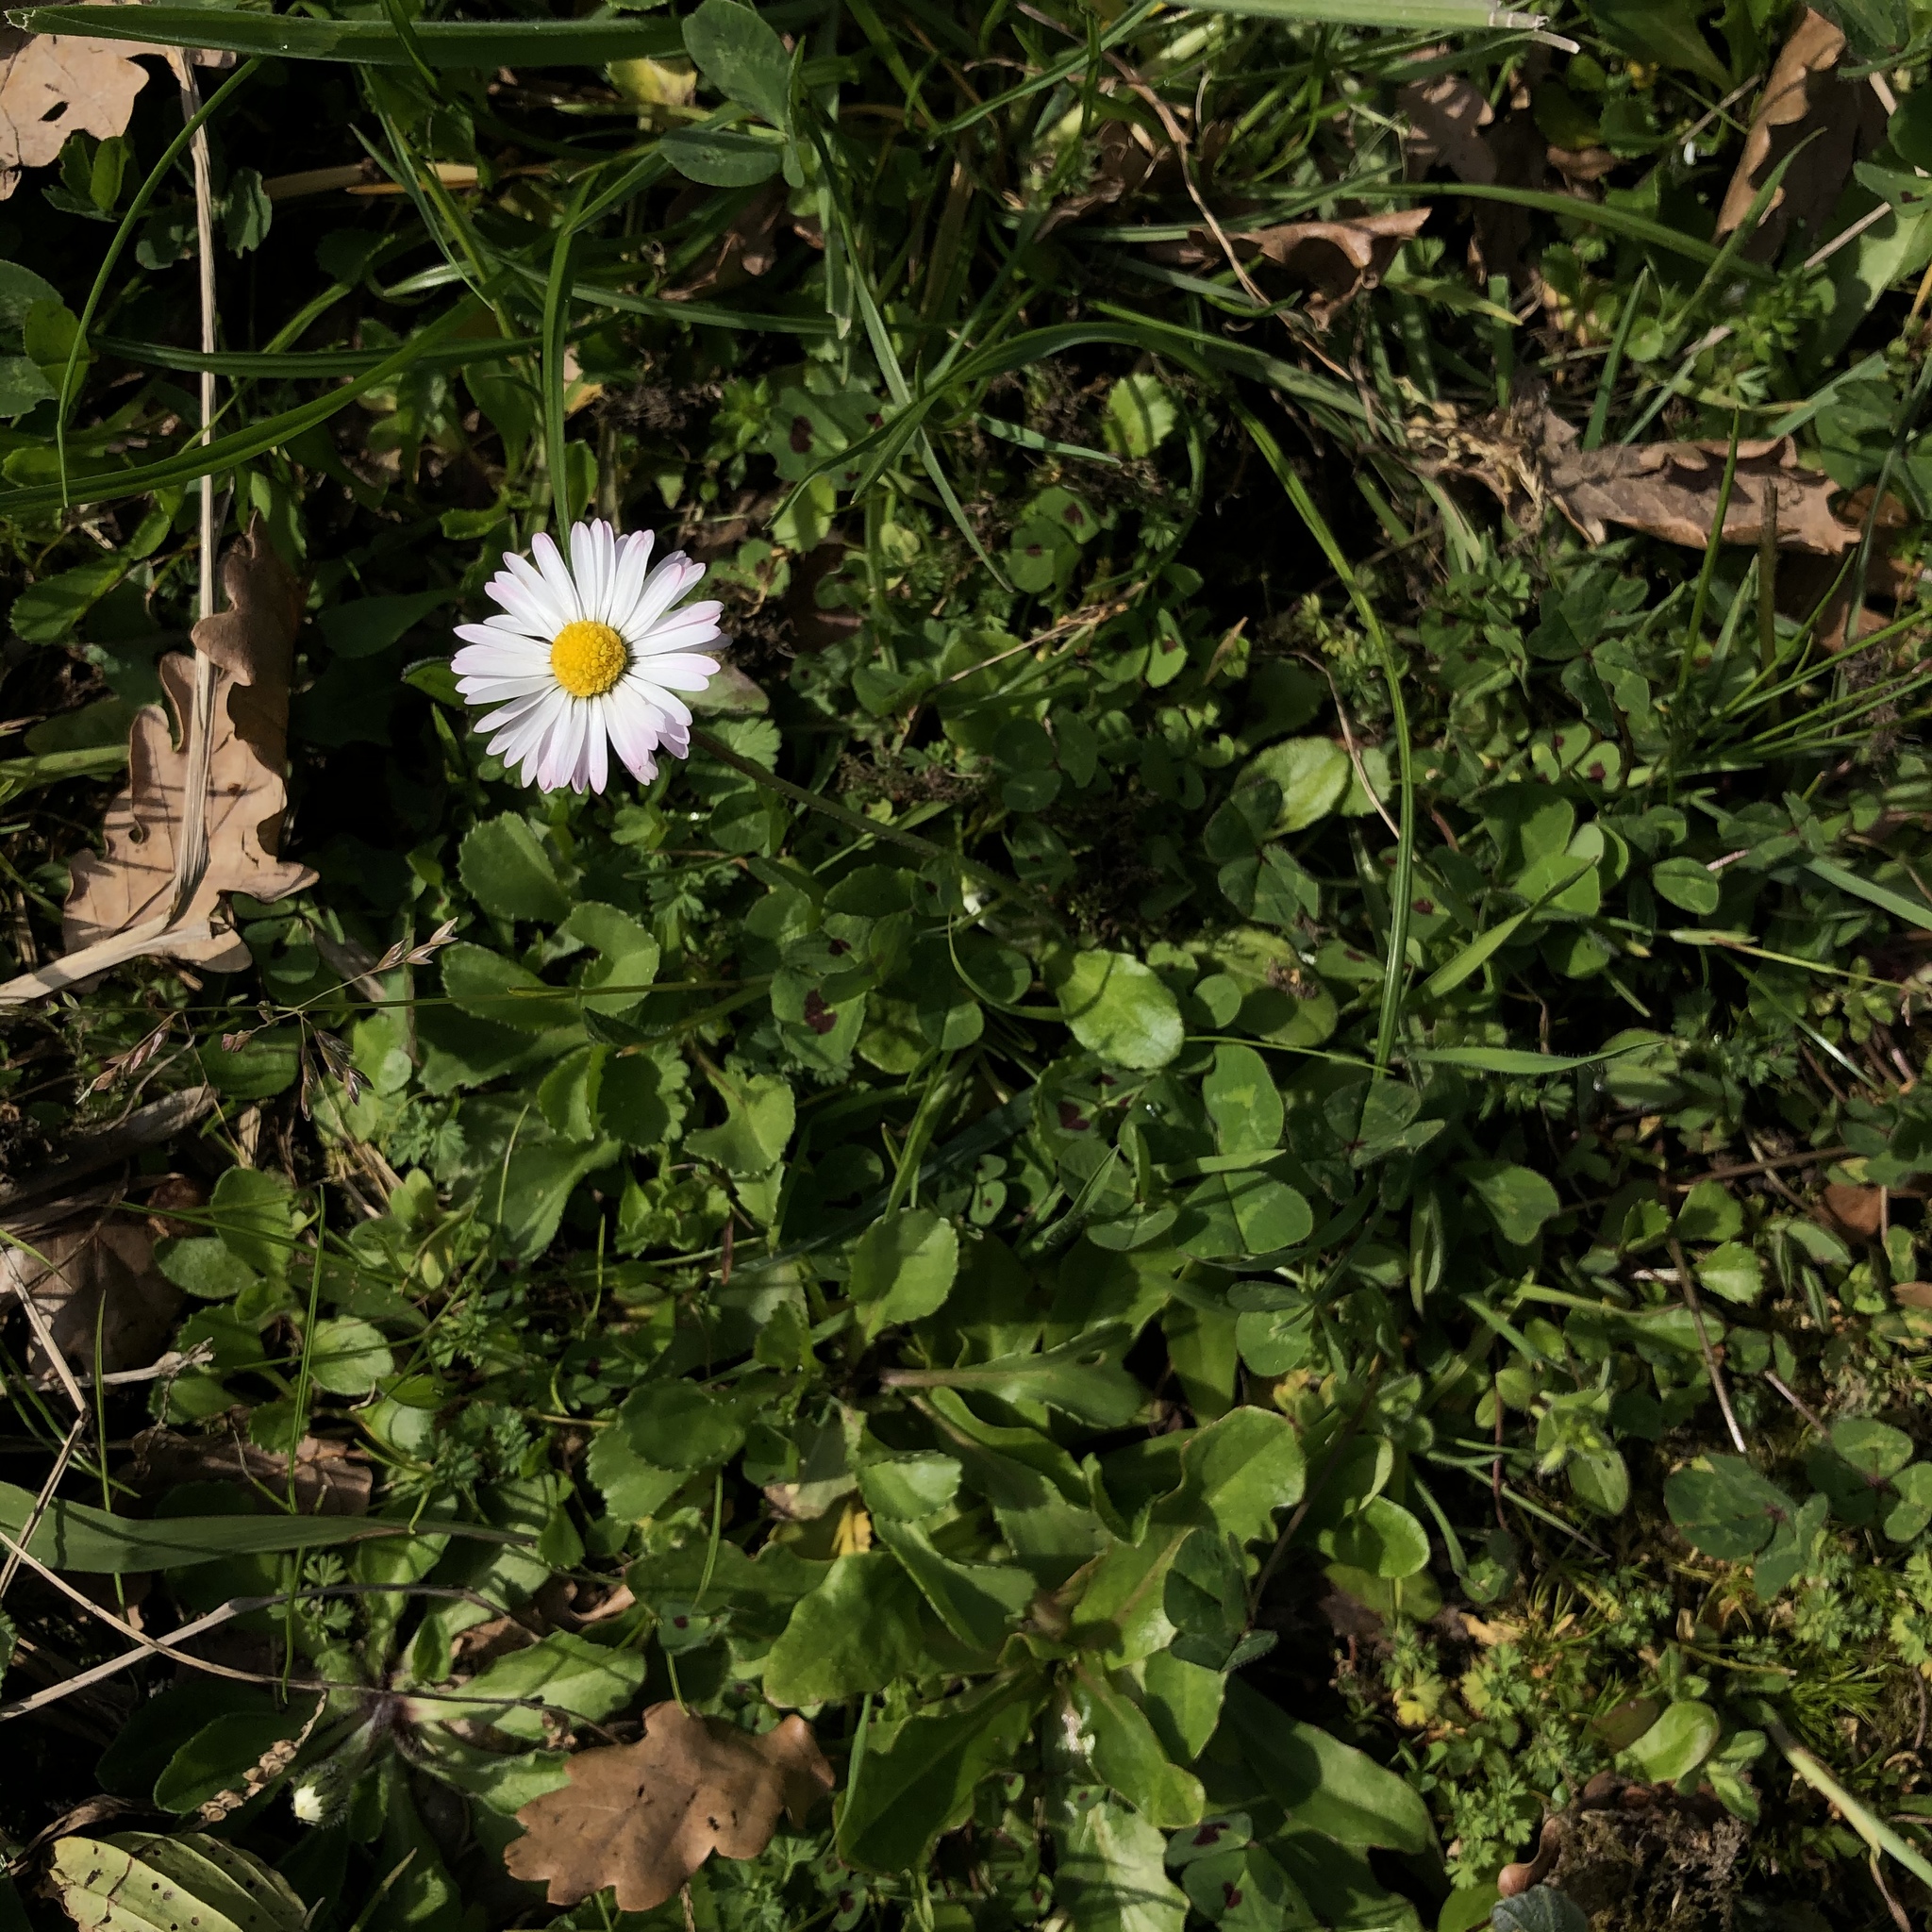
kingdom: Plantae
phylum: Tracheophyta
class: Magnoliopsida
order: Asterales
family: Asteraceae
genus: Bellis
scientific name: Bellis perennis
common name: Lawndaisy
